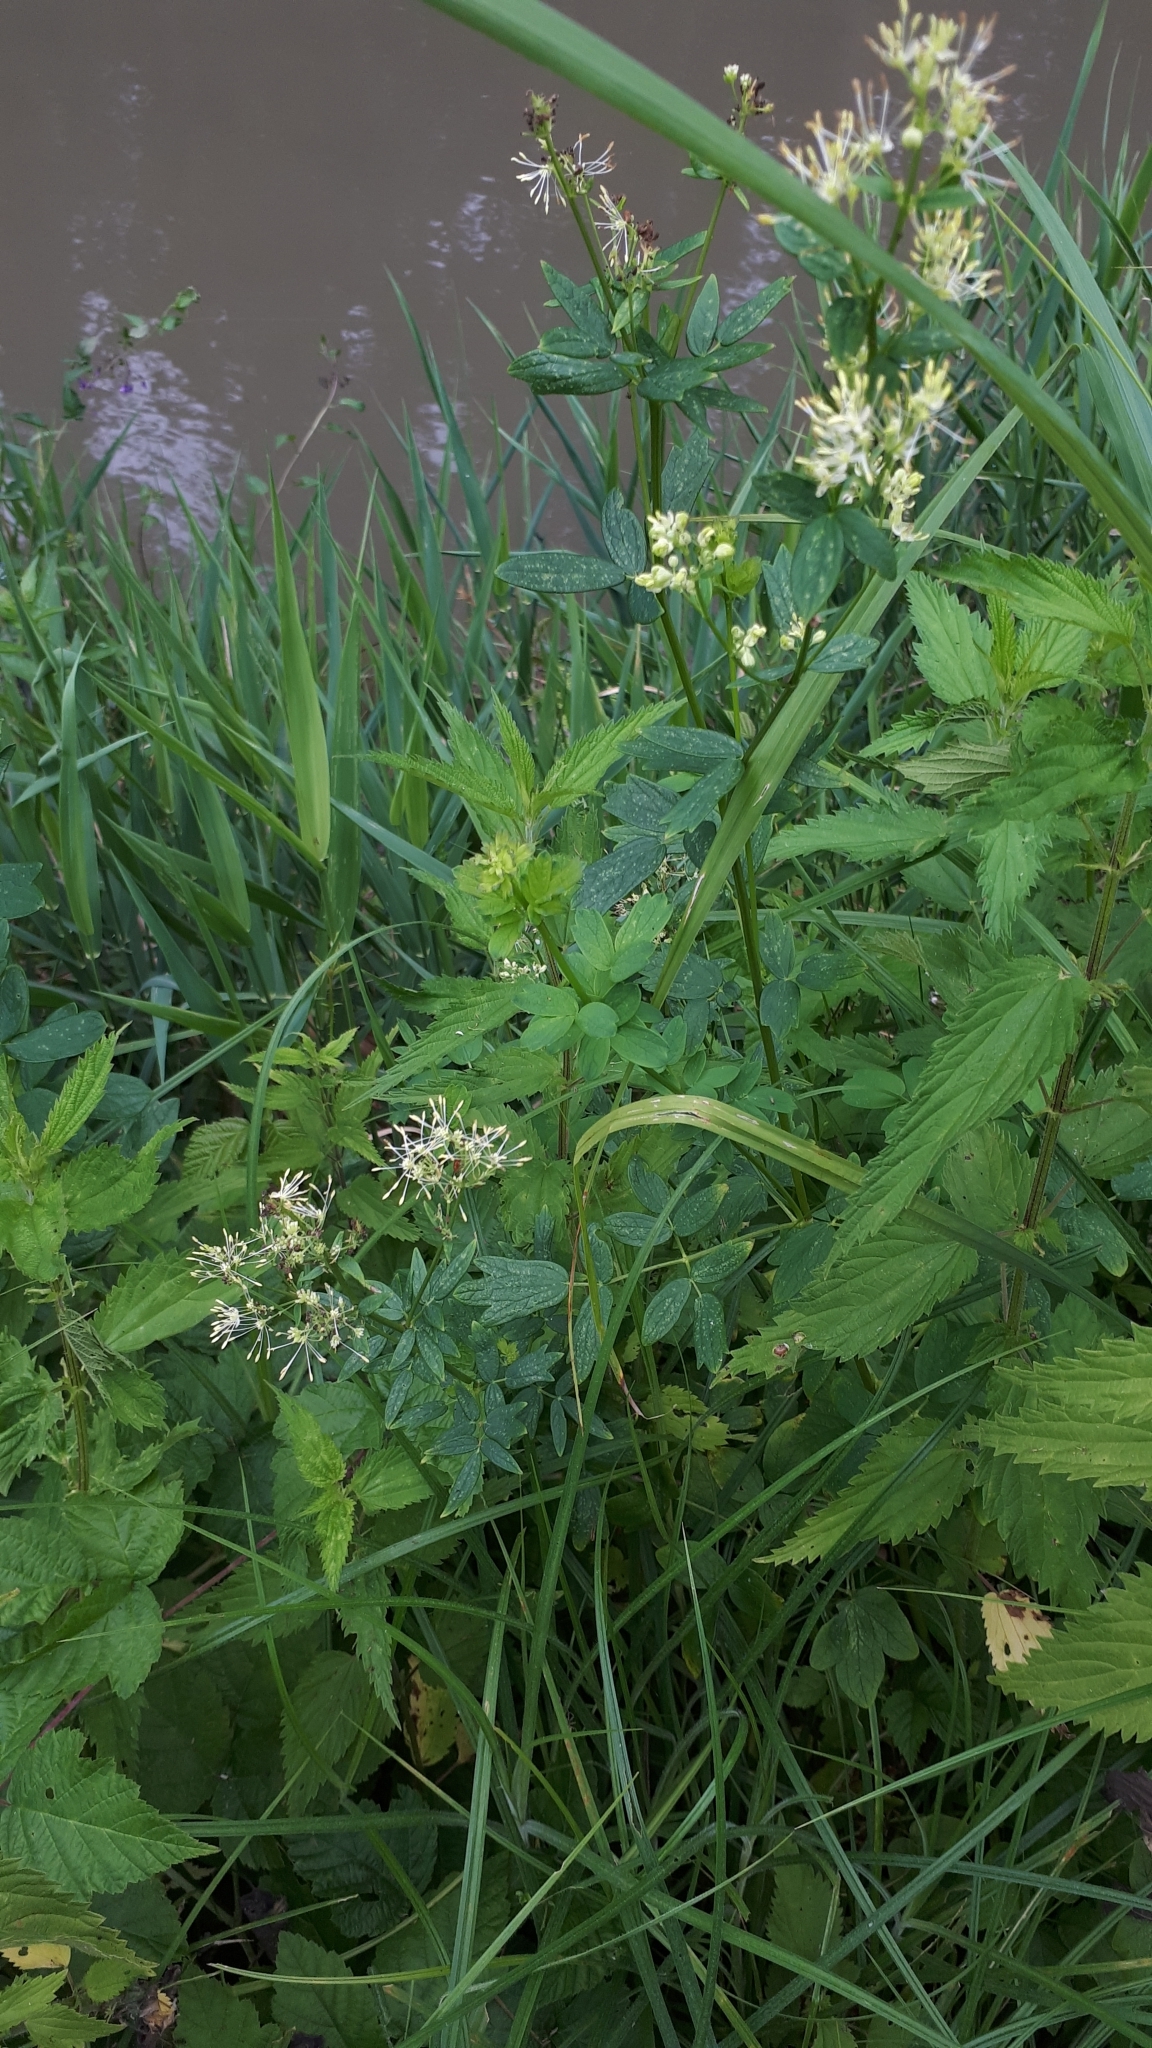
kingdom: Plantae
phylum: Tracheophyta
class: Magnoliopsida
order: Ranunculales
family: Ranunculaceae
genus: Thalictrum
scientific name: Thalictrum flavum
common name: Common meadow-rue
